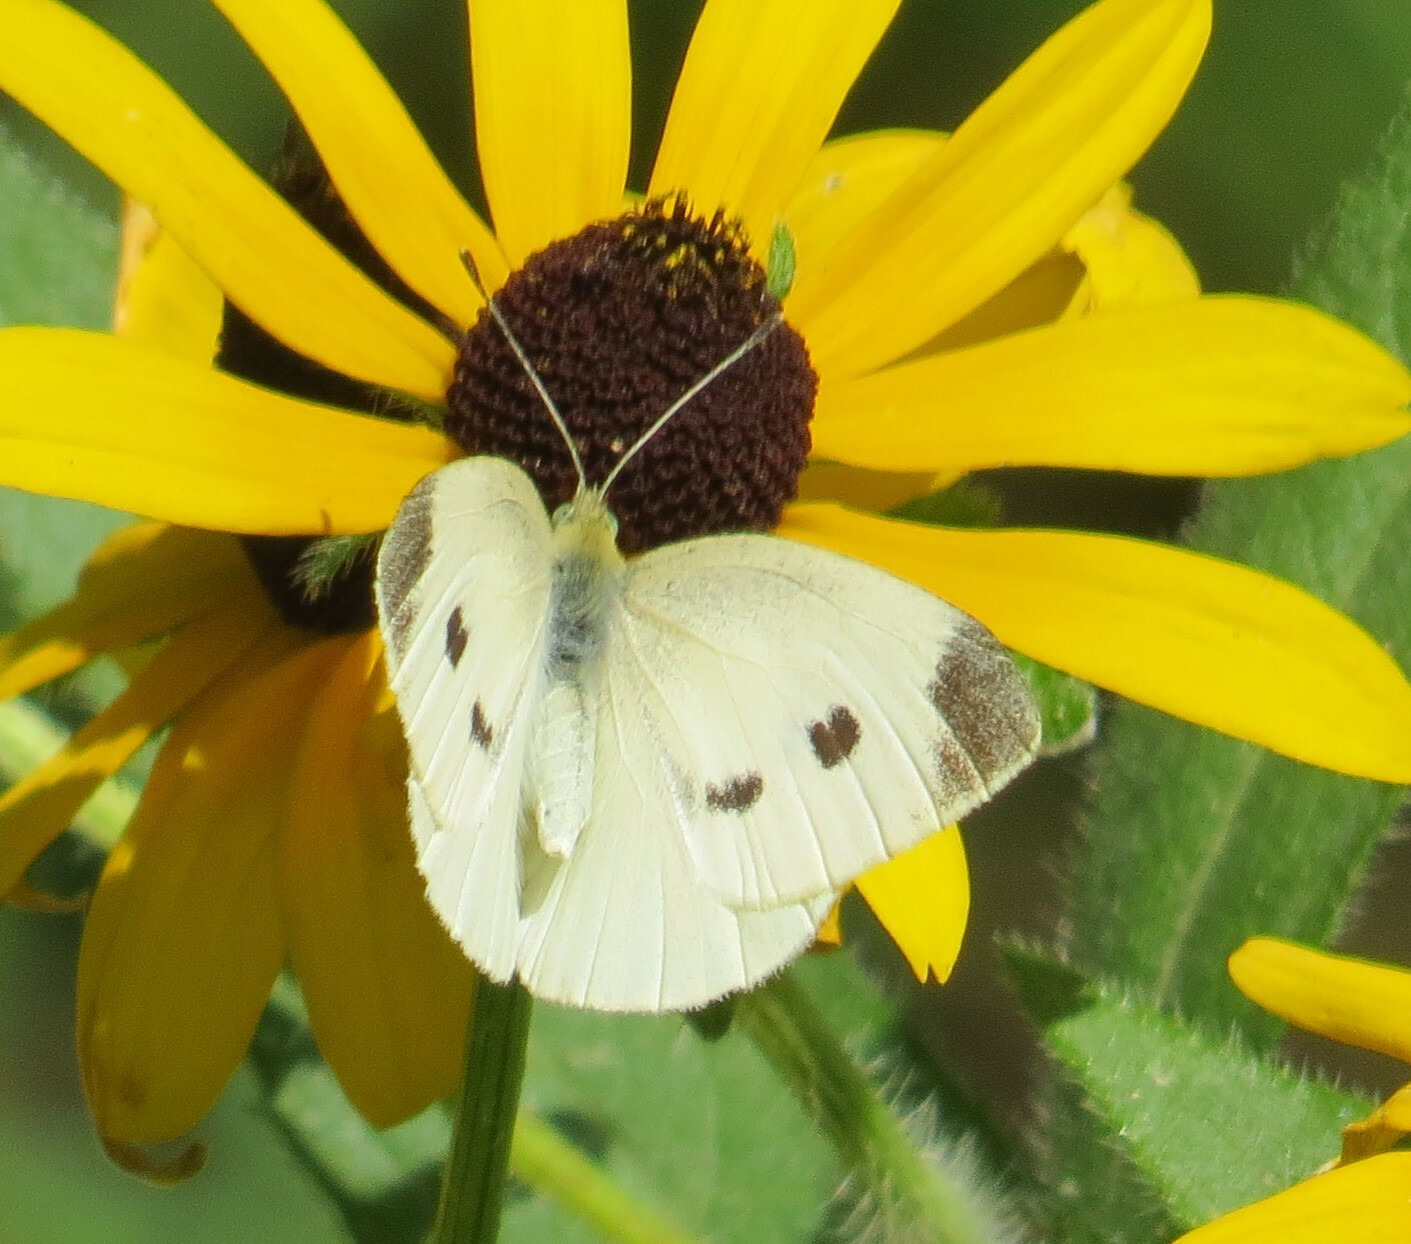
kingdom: Animalia
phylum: Arthropoda
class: Insecta
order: Lepidoptera
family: Pieridae
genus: Pieris
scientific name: Pieris rapae
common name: Small white
